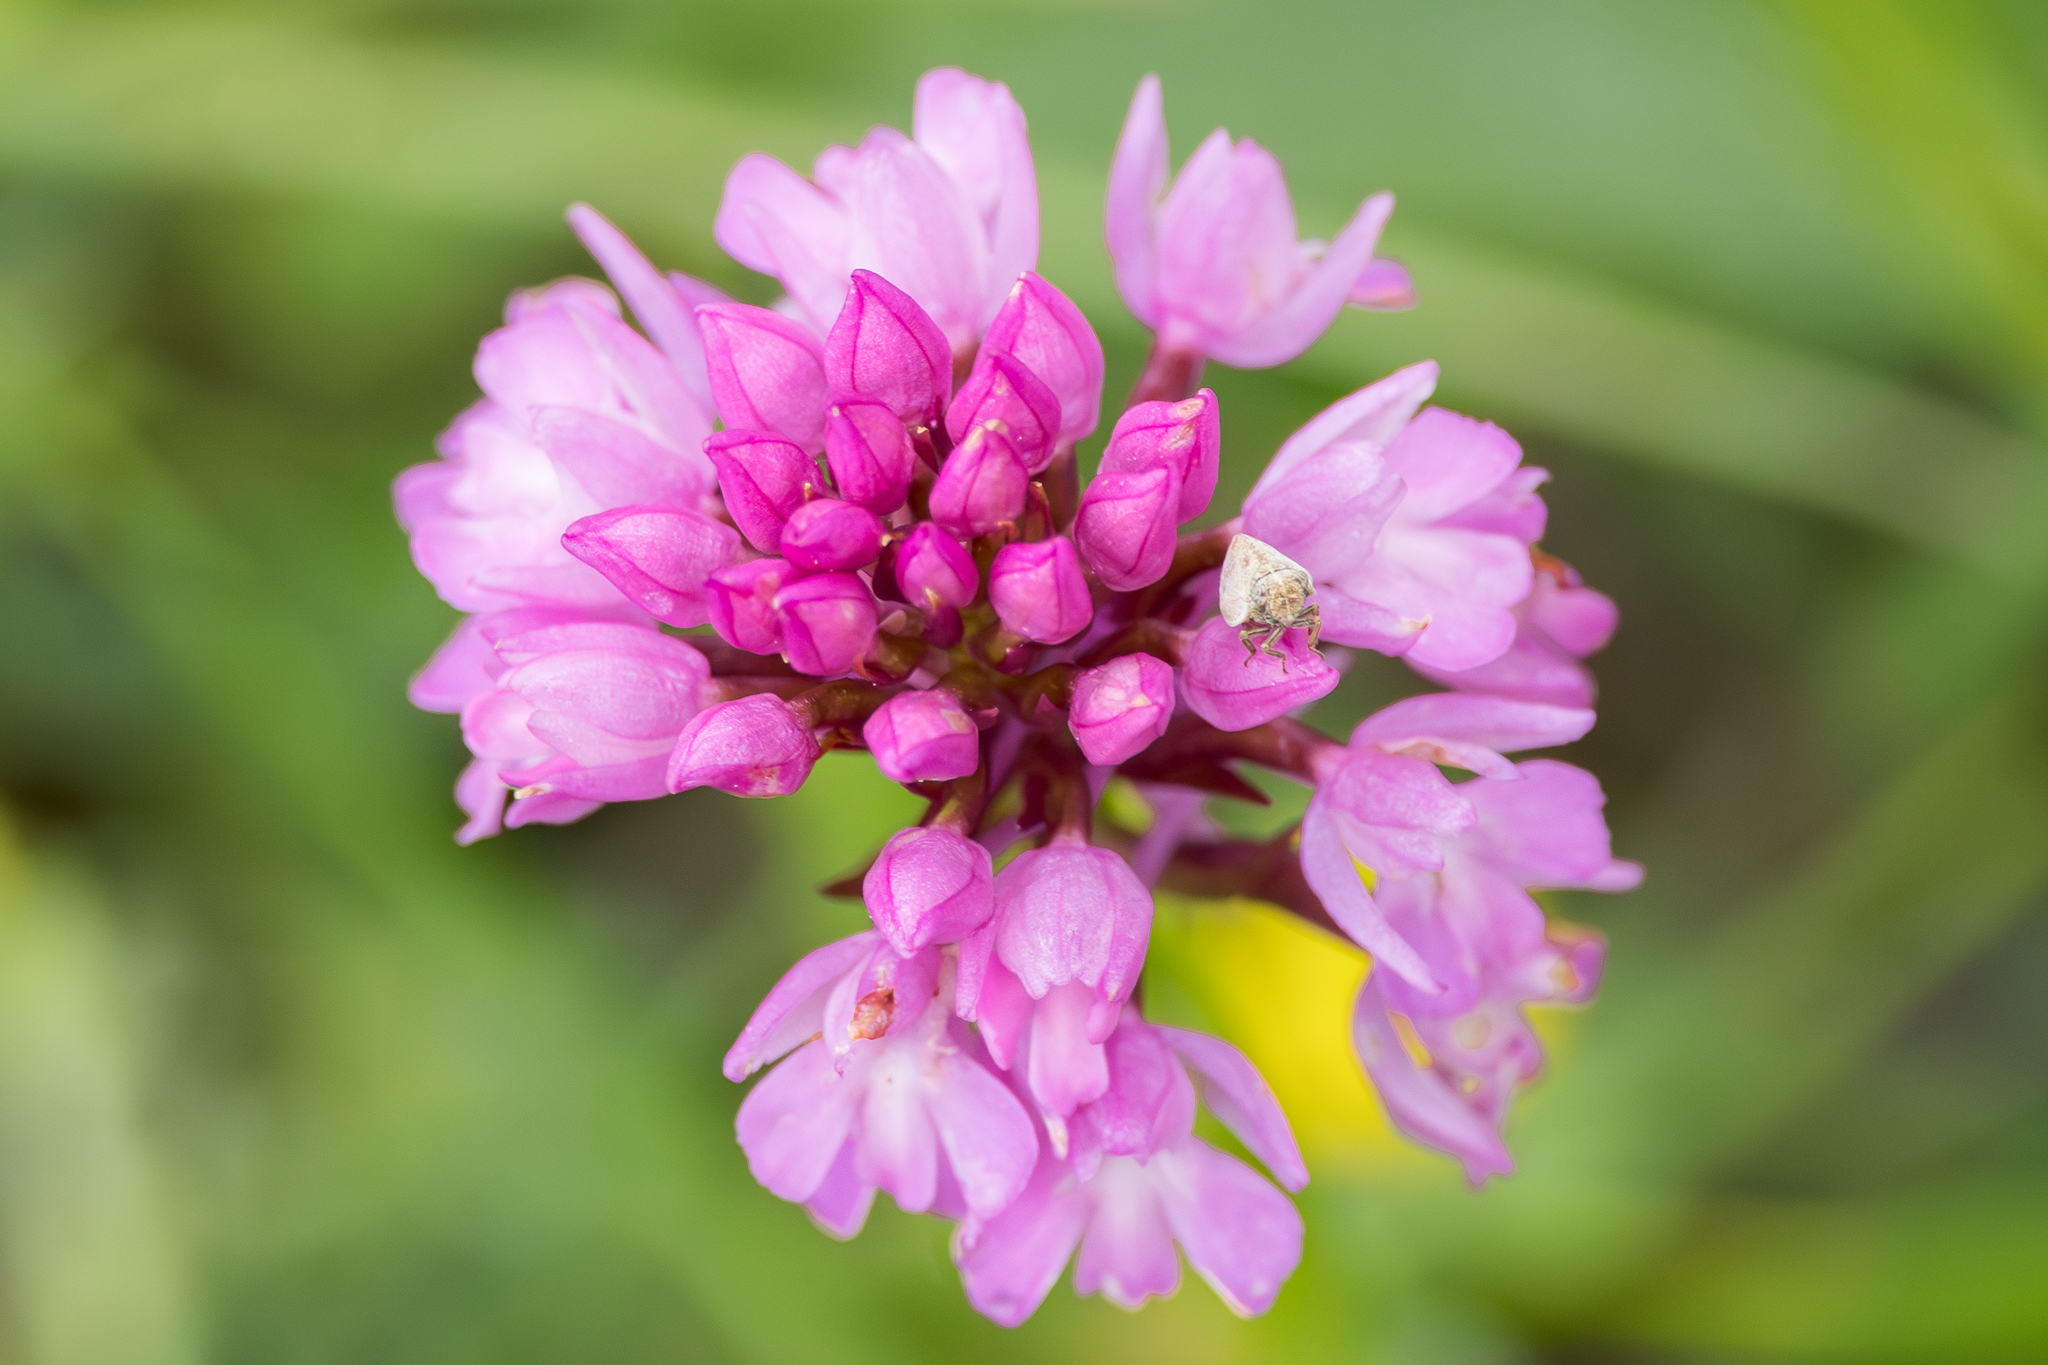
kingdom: Plantae
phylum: Tracheophyta
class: Liliopsida
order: Asparagales
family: Orchidaceae
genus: Anacamptis
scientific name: Anacamptis pyramidalis
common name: Pyramidal orchid
